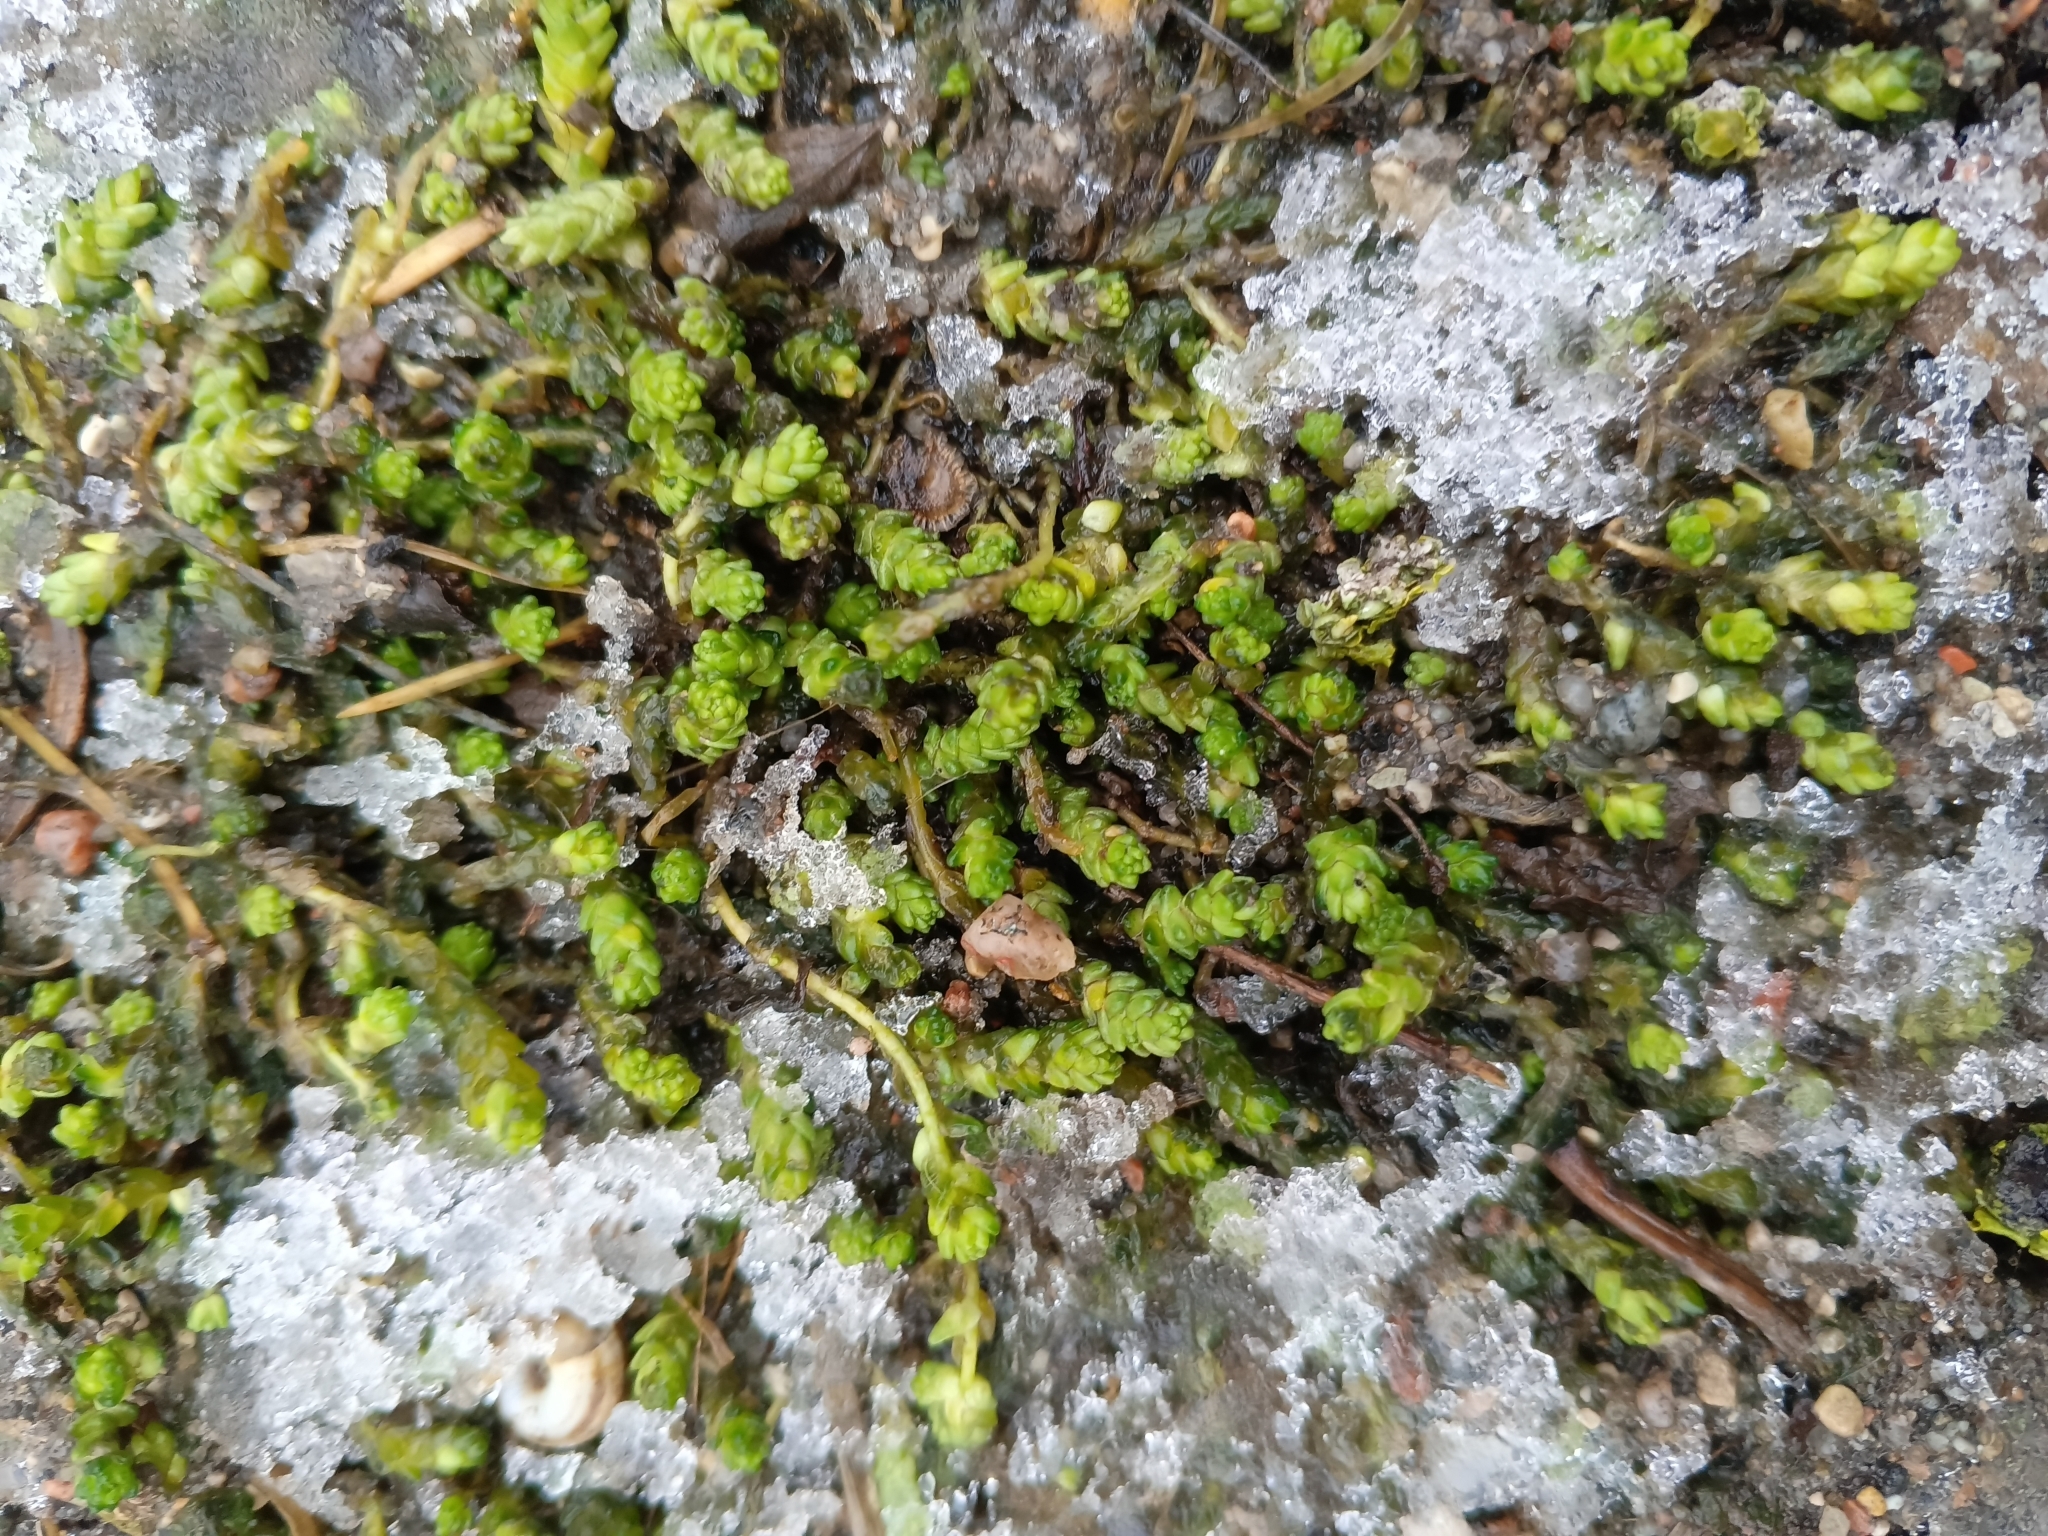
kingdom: Plantae
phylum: Tracheophyta
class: Magnoliopsida
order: Saxifragales
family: Crassulaceae
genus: Sedum
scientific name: Sedum acre
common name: Biting stonecrop
